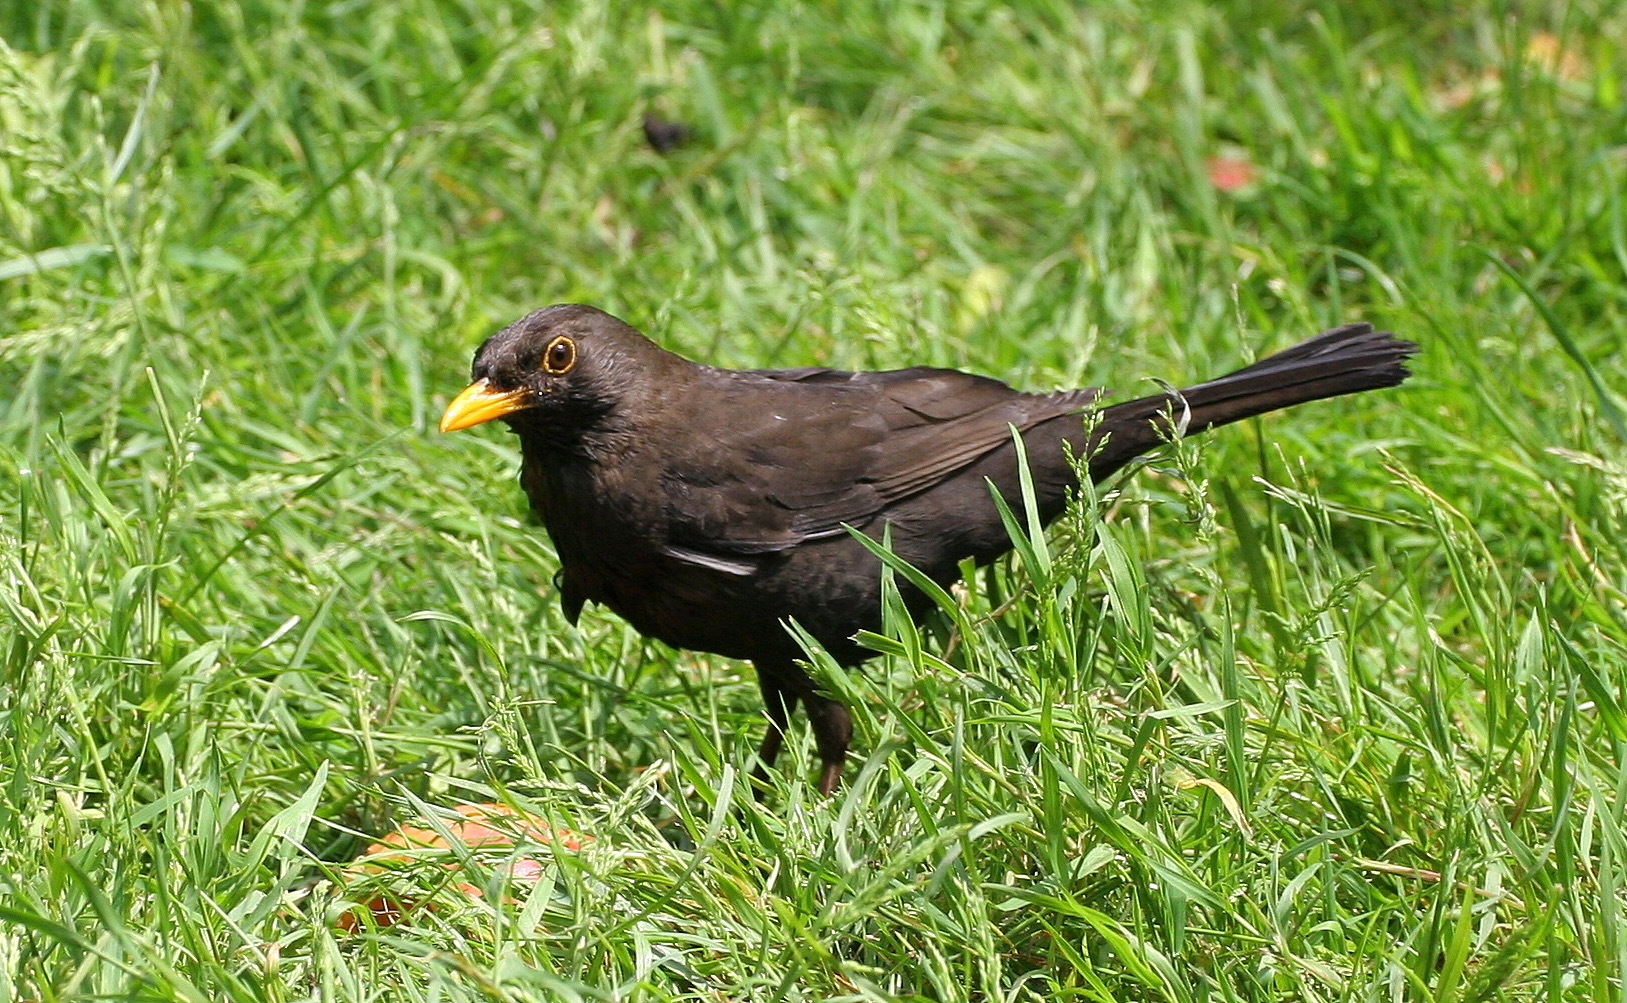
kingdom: Animalia
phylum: Chordata
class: Aves
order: Passeriformes
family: Turdidae
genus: Turdus
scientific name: Turdus merula
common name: Common blackbird
